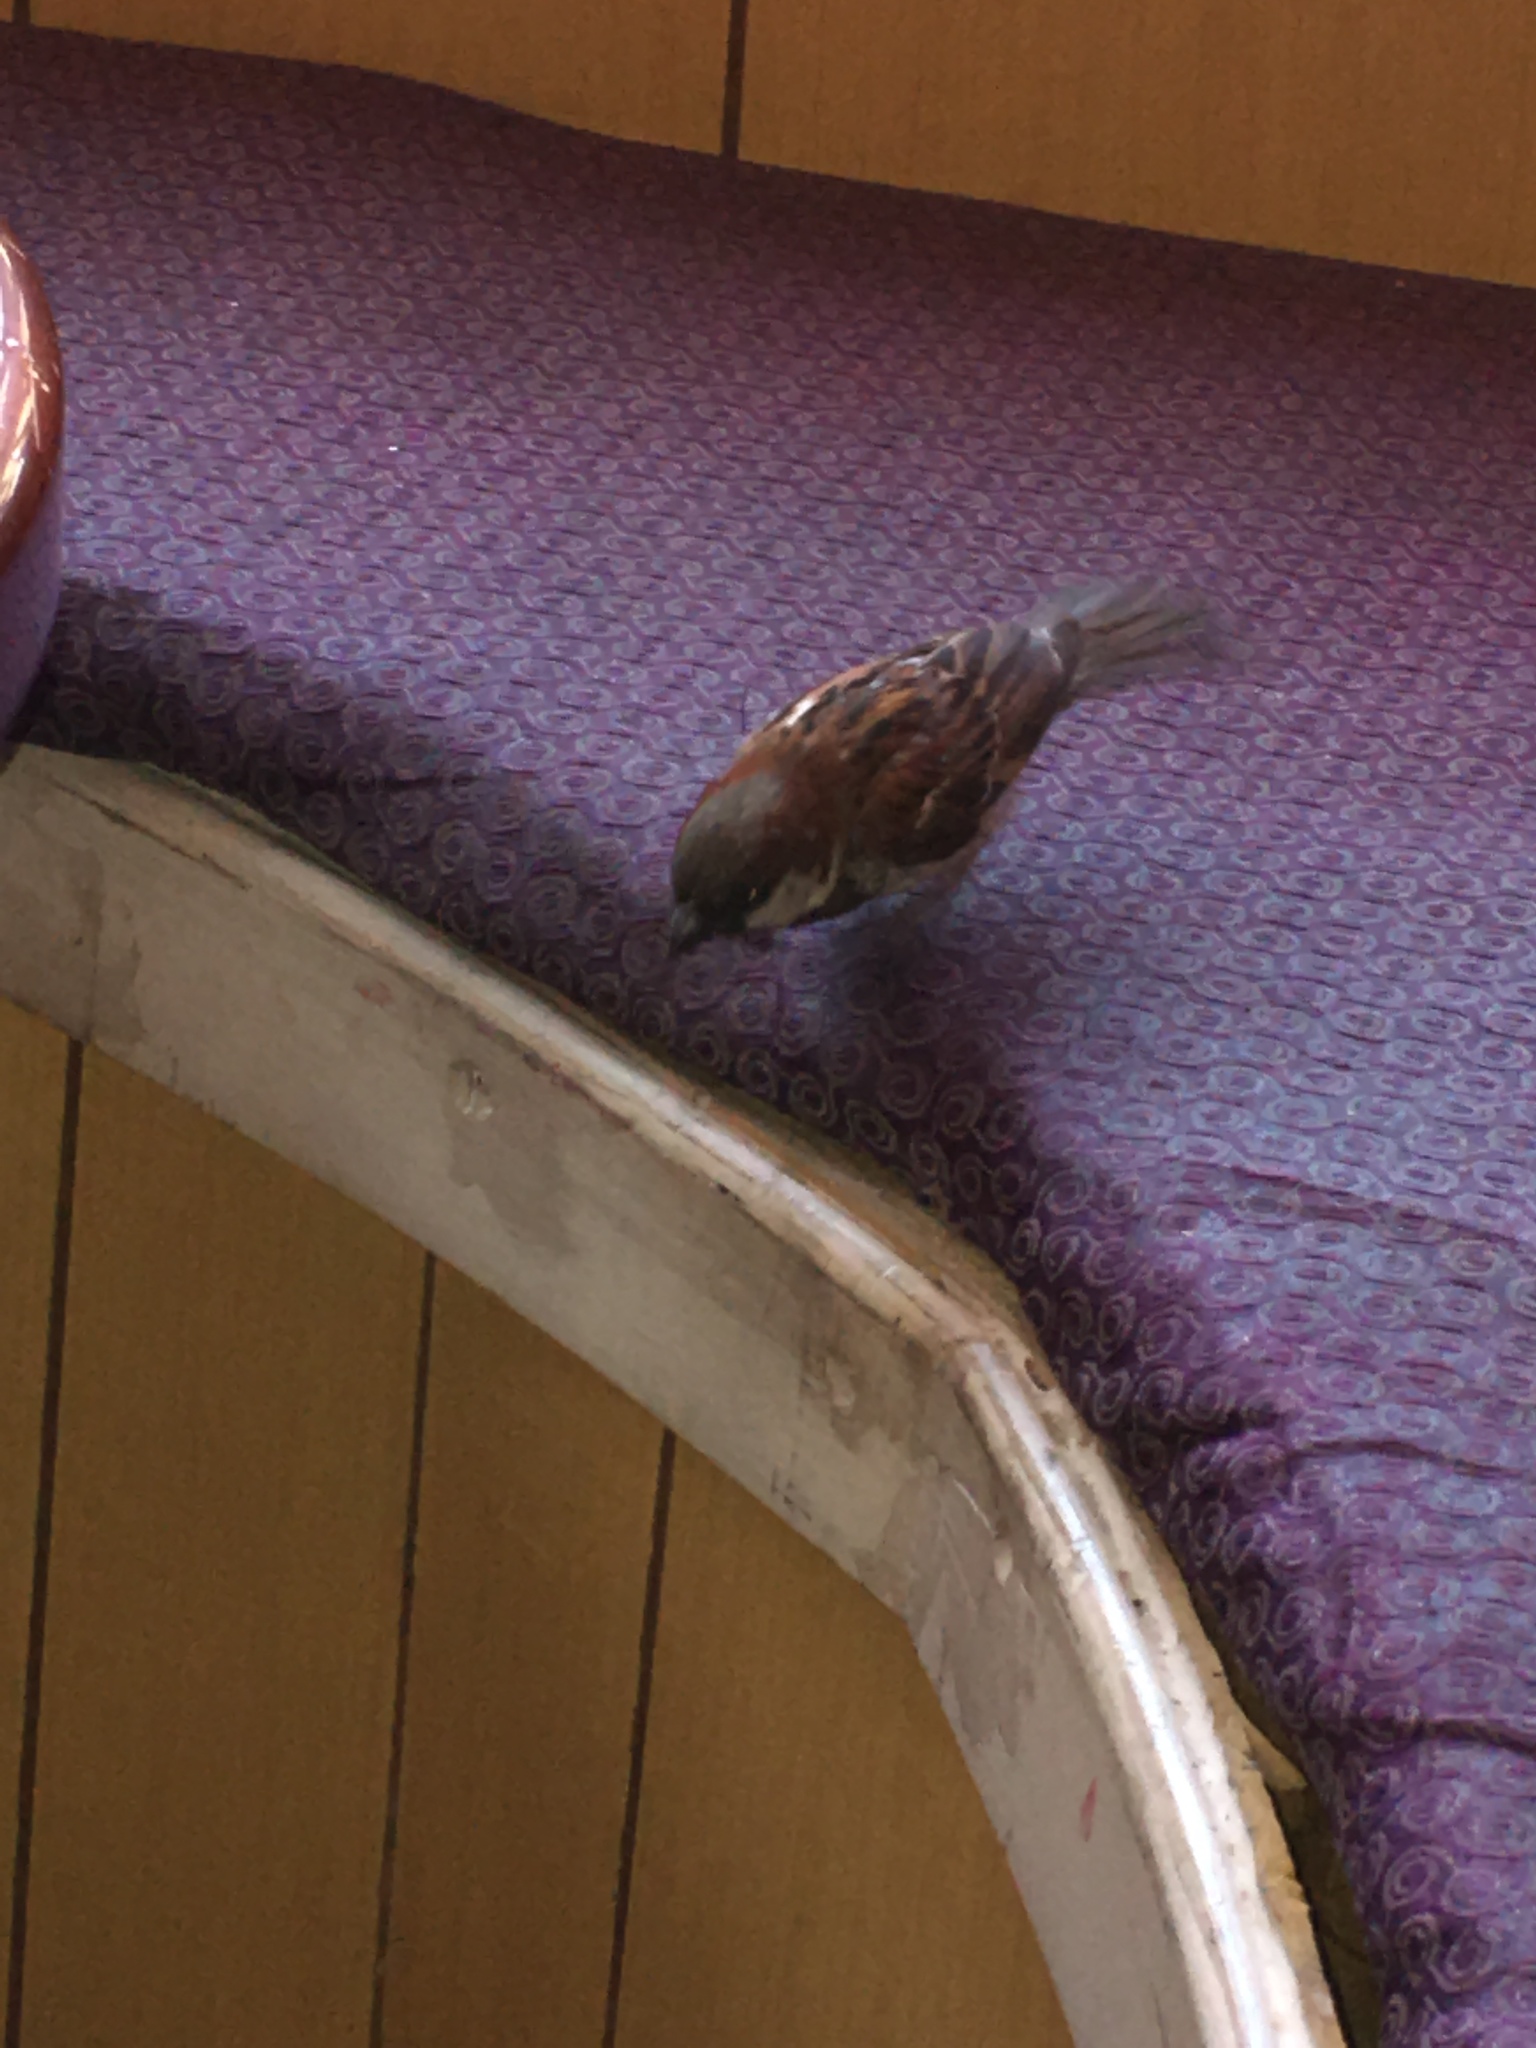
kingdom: Animalia
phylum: Chordata
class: Aves
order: Passeriformes
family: Passeridae
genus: Passer
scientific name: Passer domesticus
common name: House sparrow
